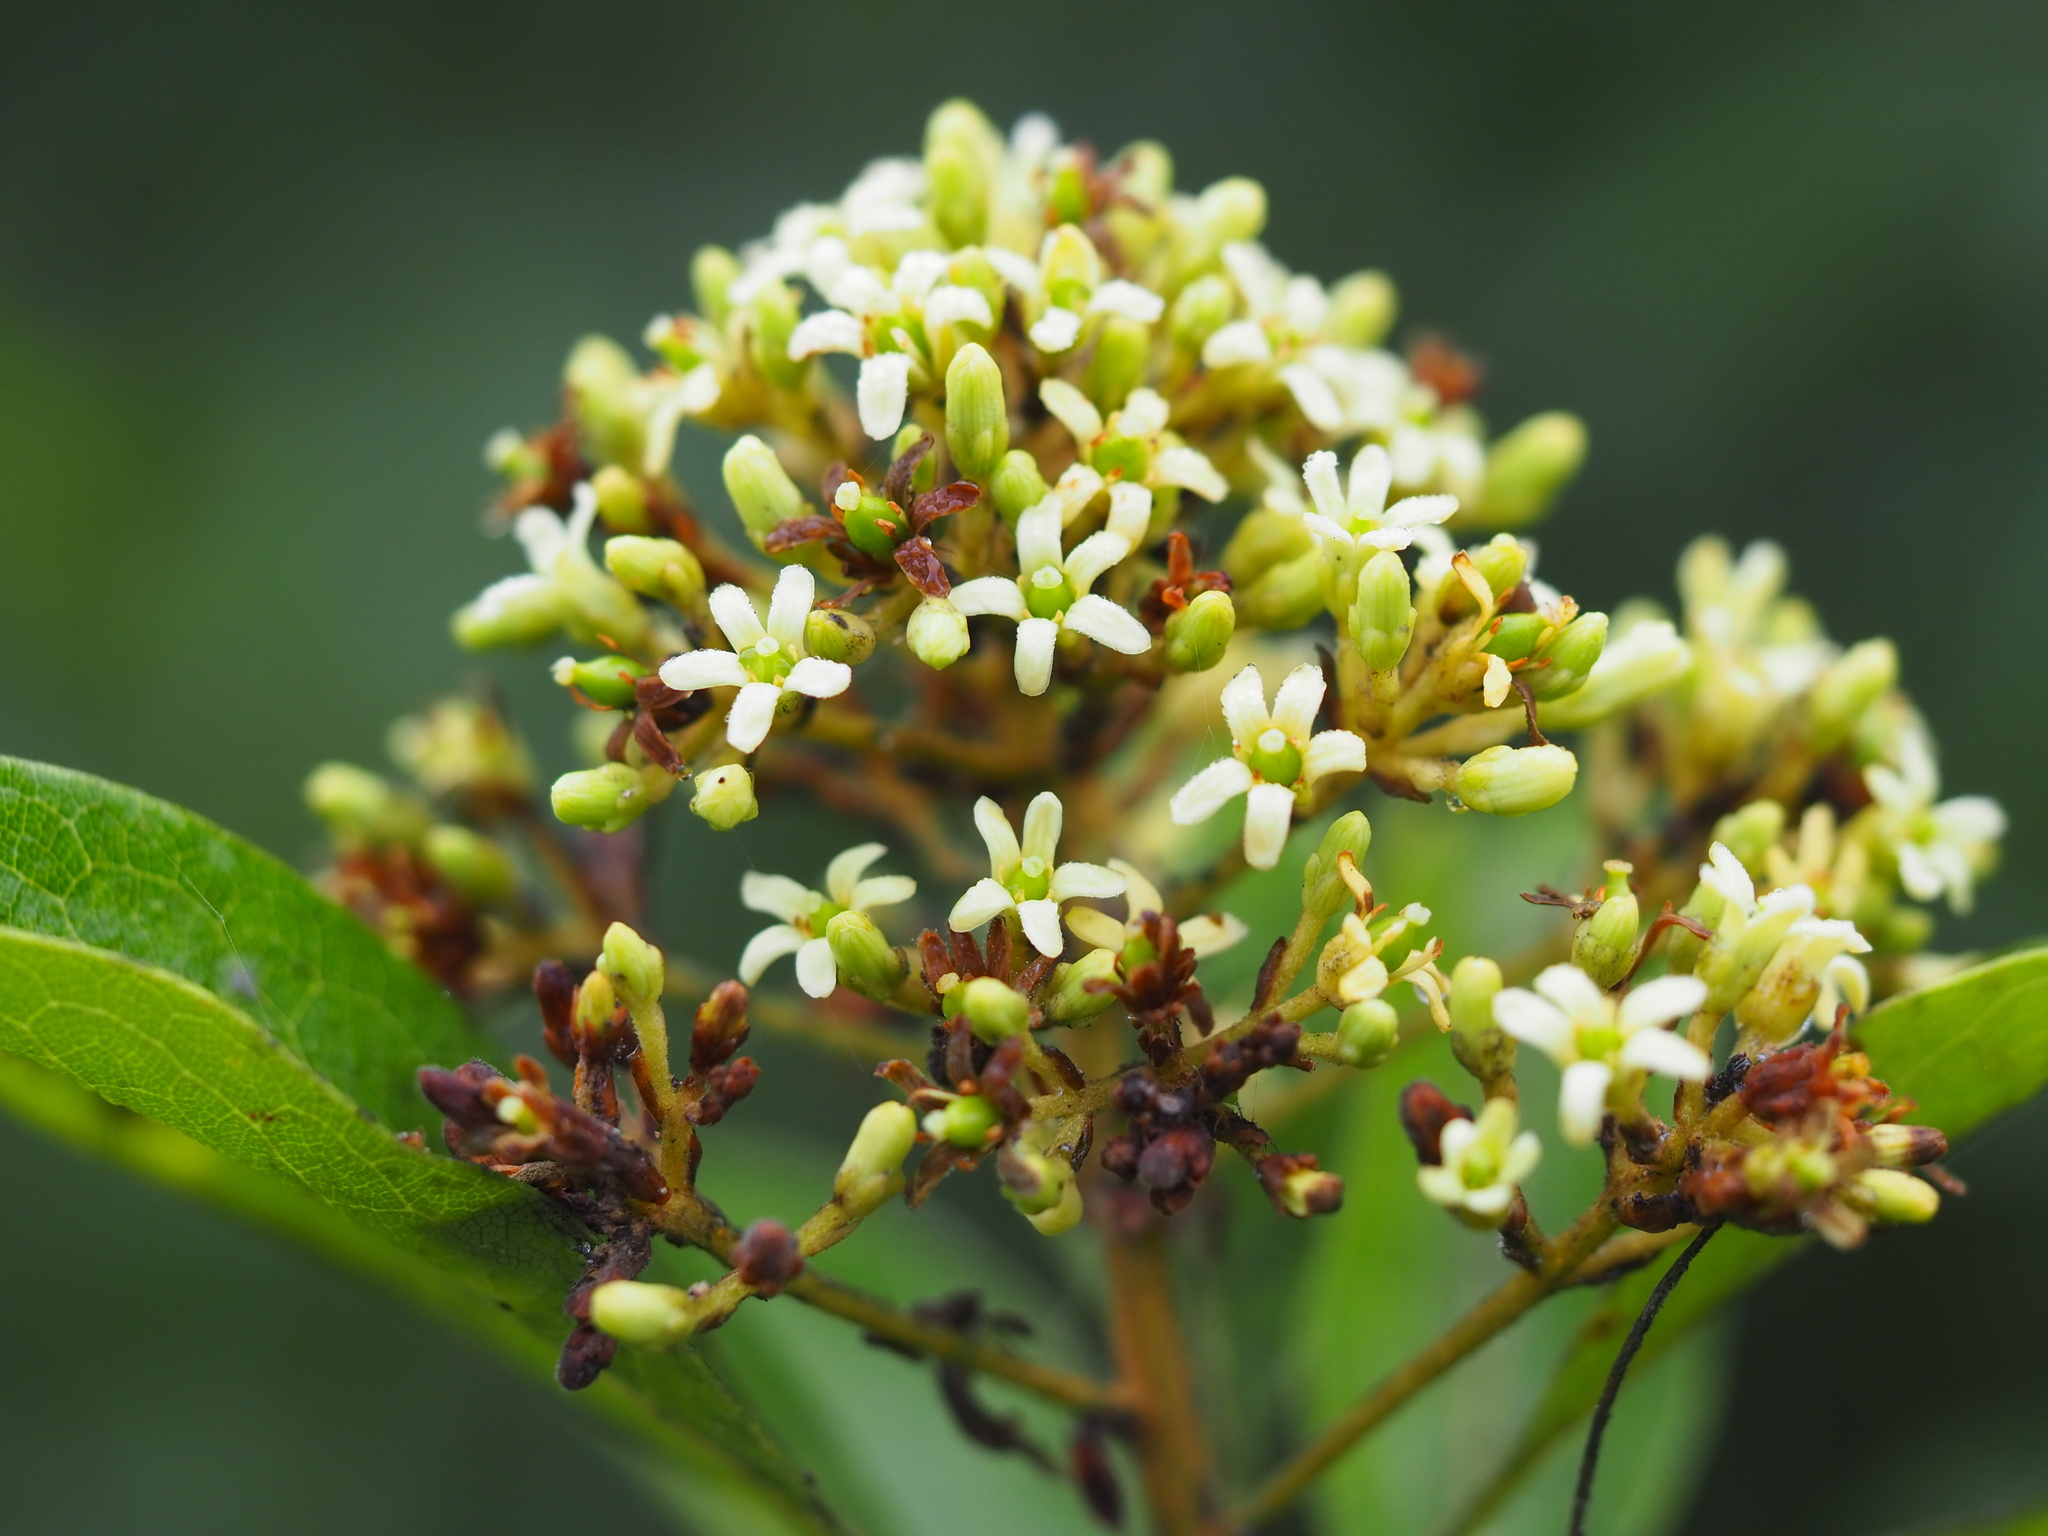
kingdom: Plantae
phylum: Tracheophyta
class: Magnoliopsida
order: Apiales
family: Pittosporaceae
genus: Pittosporum
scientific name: Pittosporum pentandrum
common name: Taiwanese cheesewood
